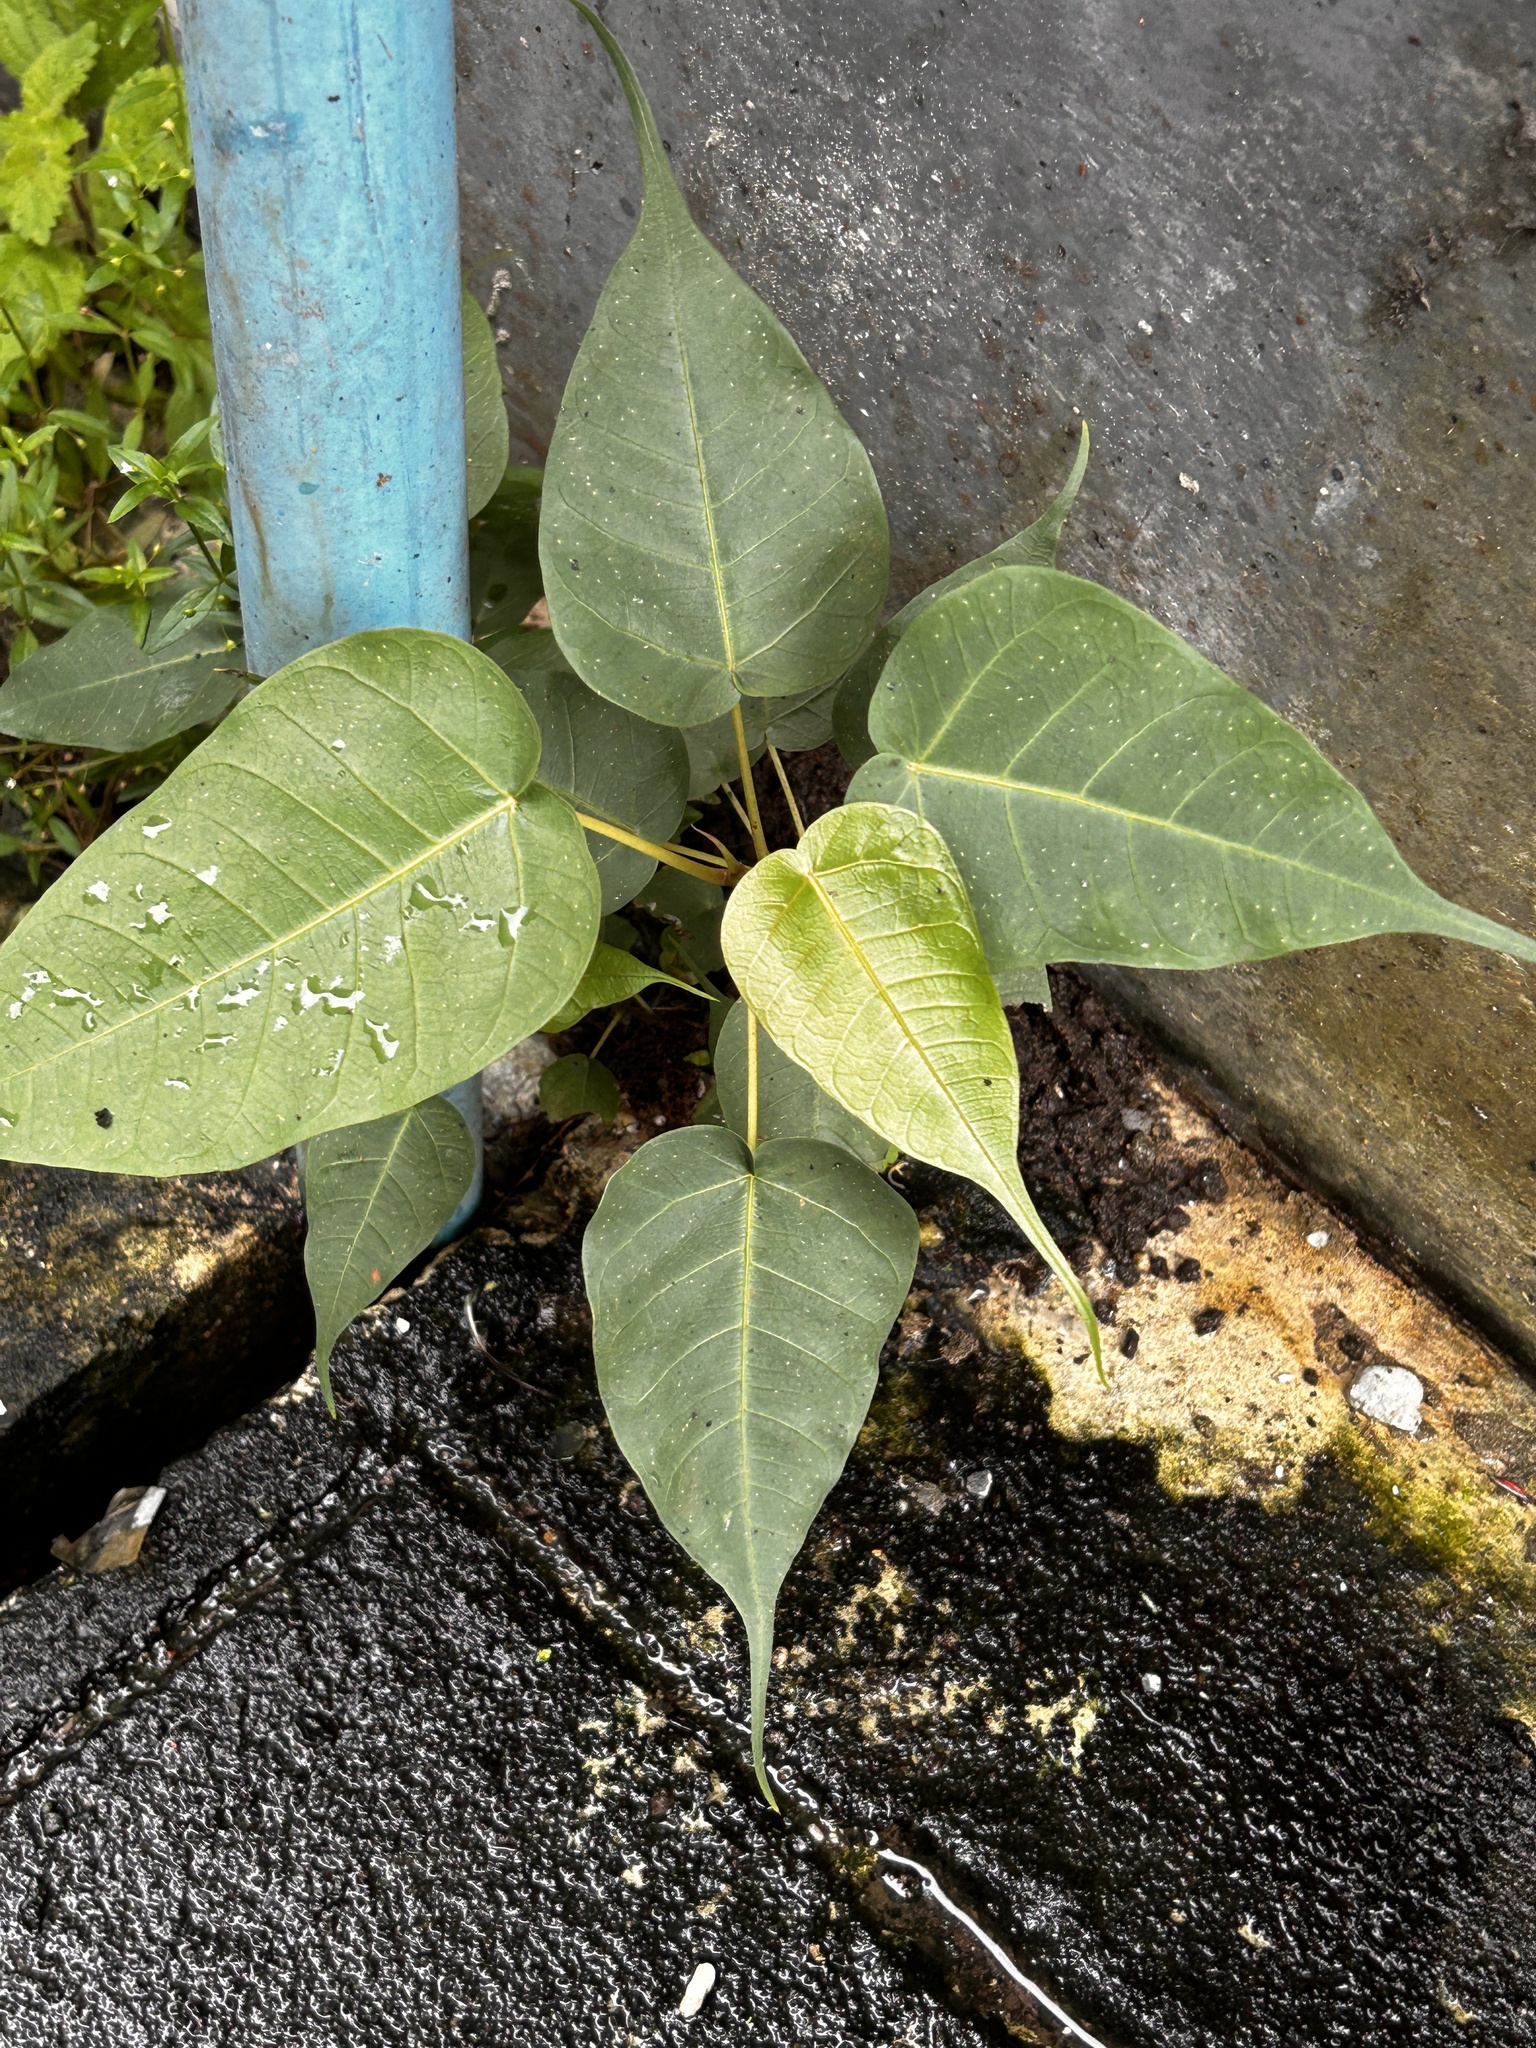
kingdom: Plantae
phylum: Tracheophyta
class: Magnoliopsida
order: Rosales
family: Moraceae
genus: Ficus
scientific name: Ficus religiosa
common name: Bodhi tree
